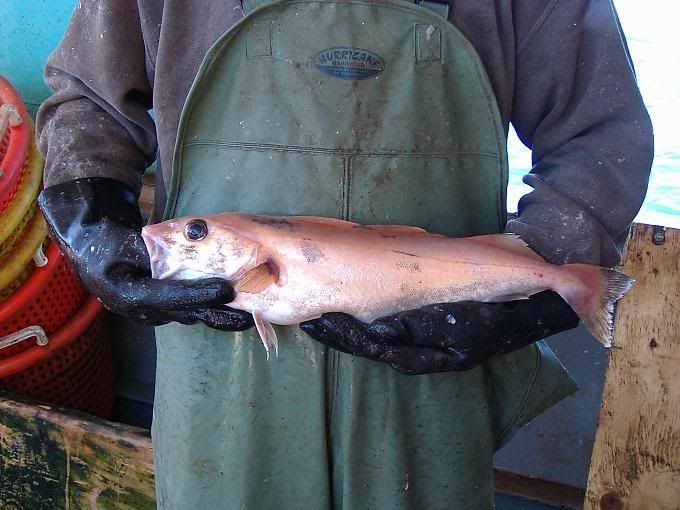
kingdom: Animalia
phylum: Chordata
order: Gadiformes
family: Gadidae
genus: Melanogrammus
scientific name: Melanogrammus aeglefinus
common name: Haddock
